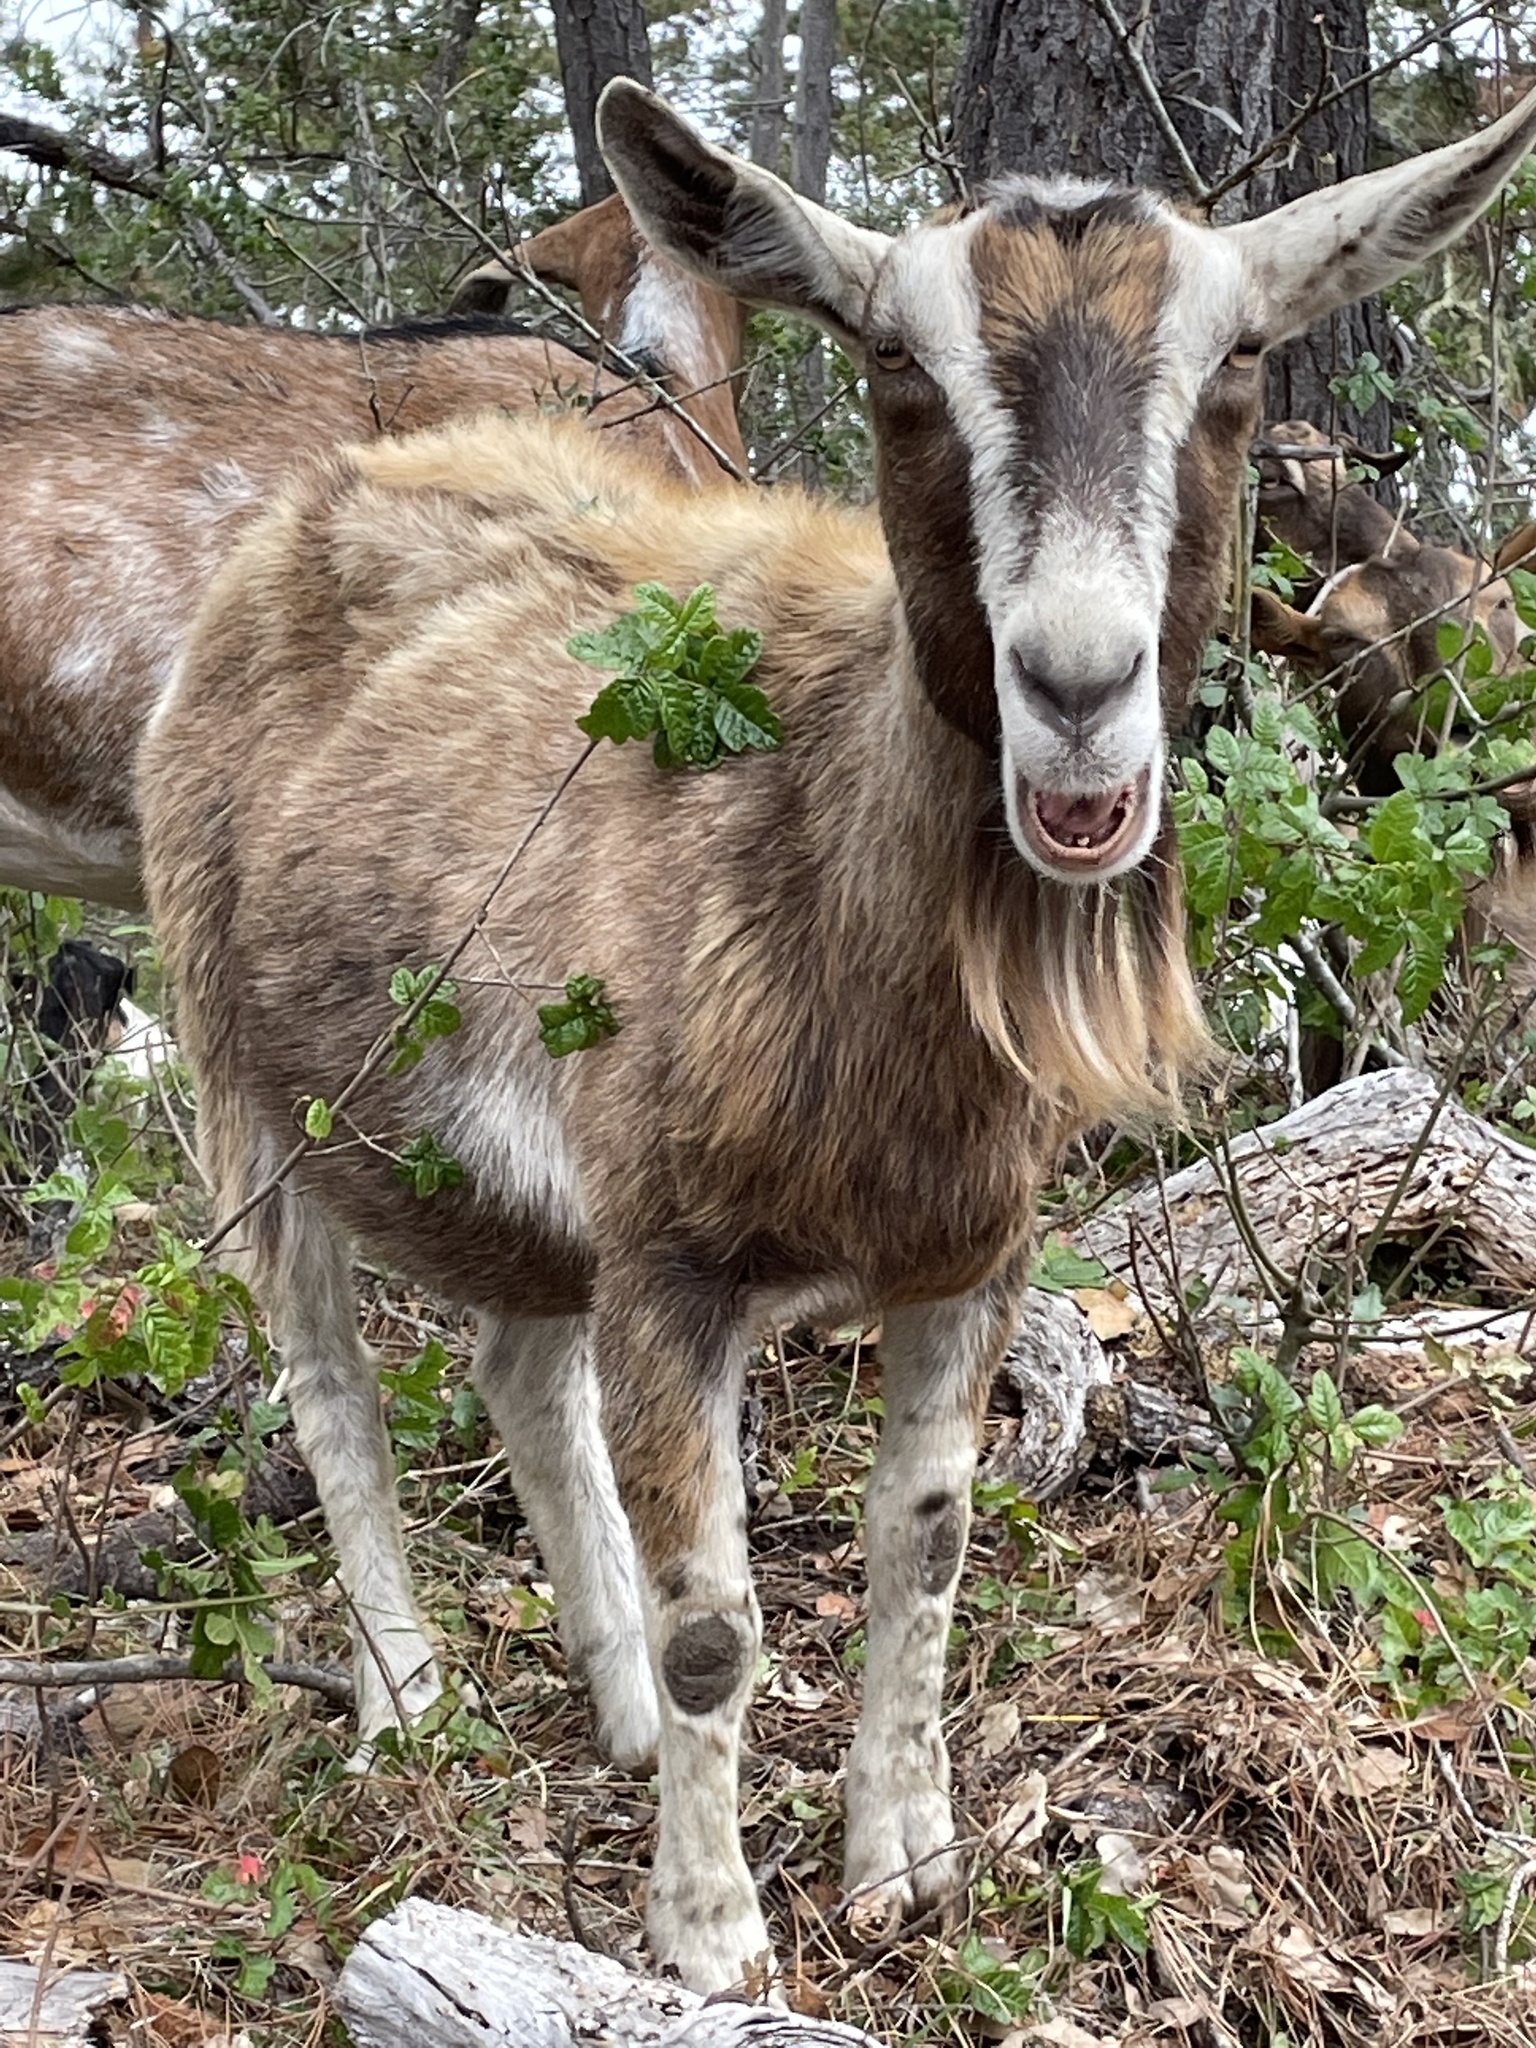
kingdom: Plantae
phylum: Tracheophyta
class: Magnoliopsida
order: Sapindales
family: Anacardiaceae
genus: Toxicodendron
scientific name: Toxicodendron diversilobum
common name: Pacific poison-oak
